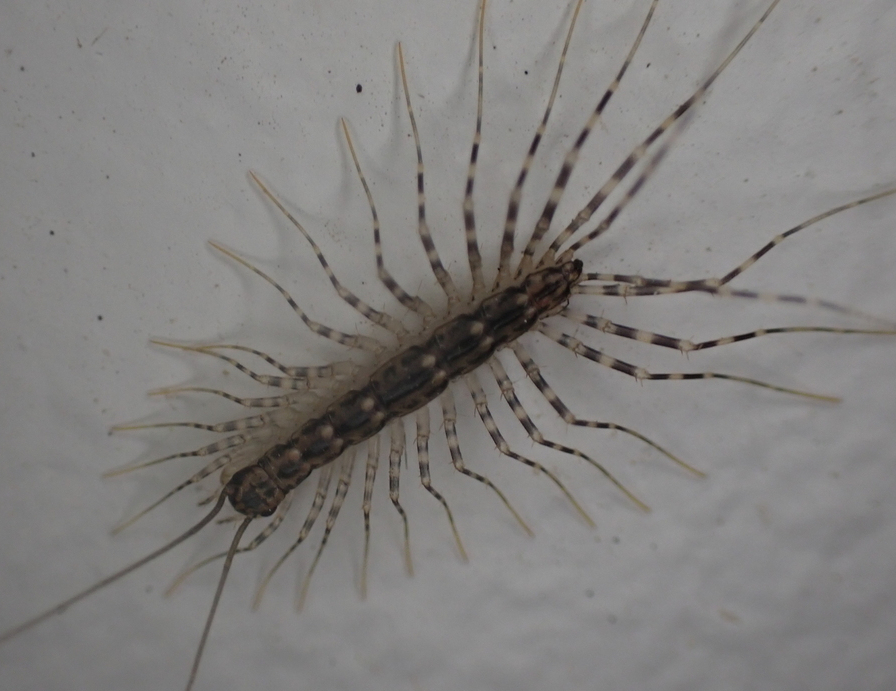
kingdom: Animalia
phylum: Arthropoda
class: Chilopoda
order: Scutigeromorpha
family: Scutigeridae
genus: Scutigera
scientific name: Scutigera coleoptrata
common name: House centipede
